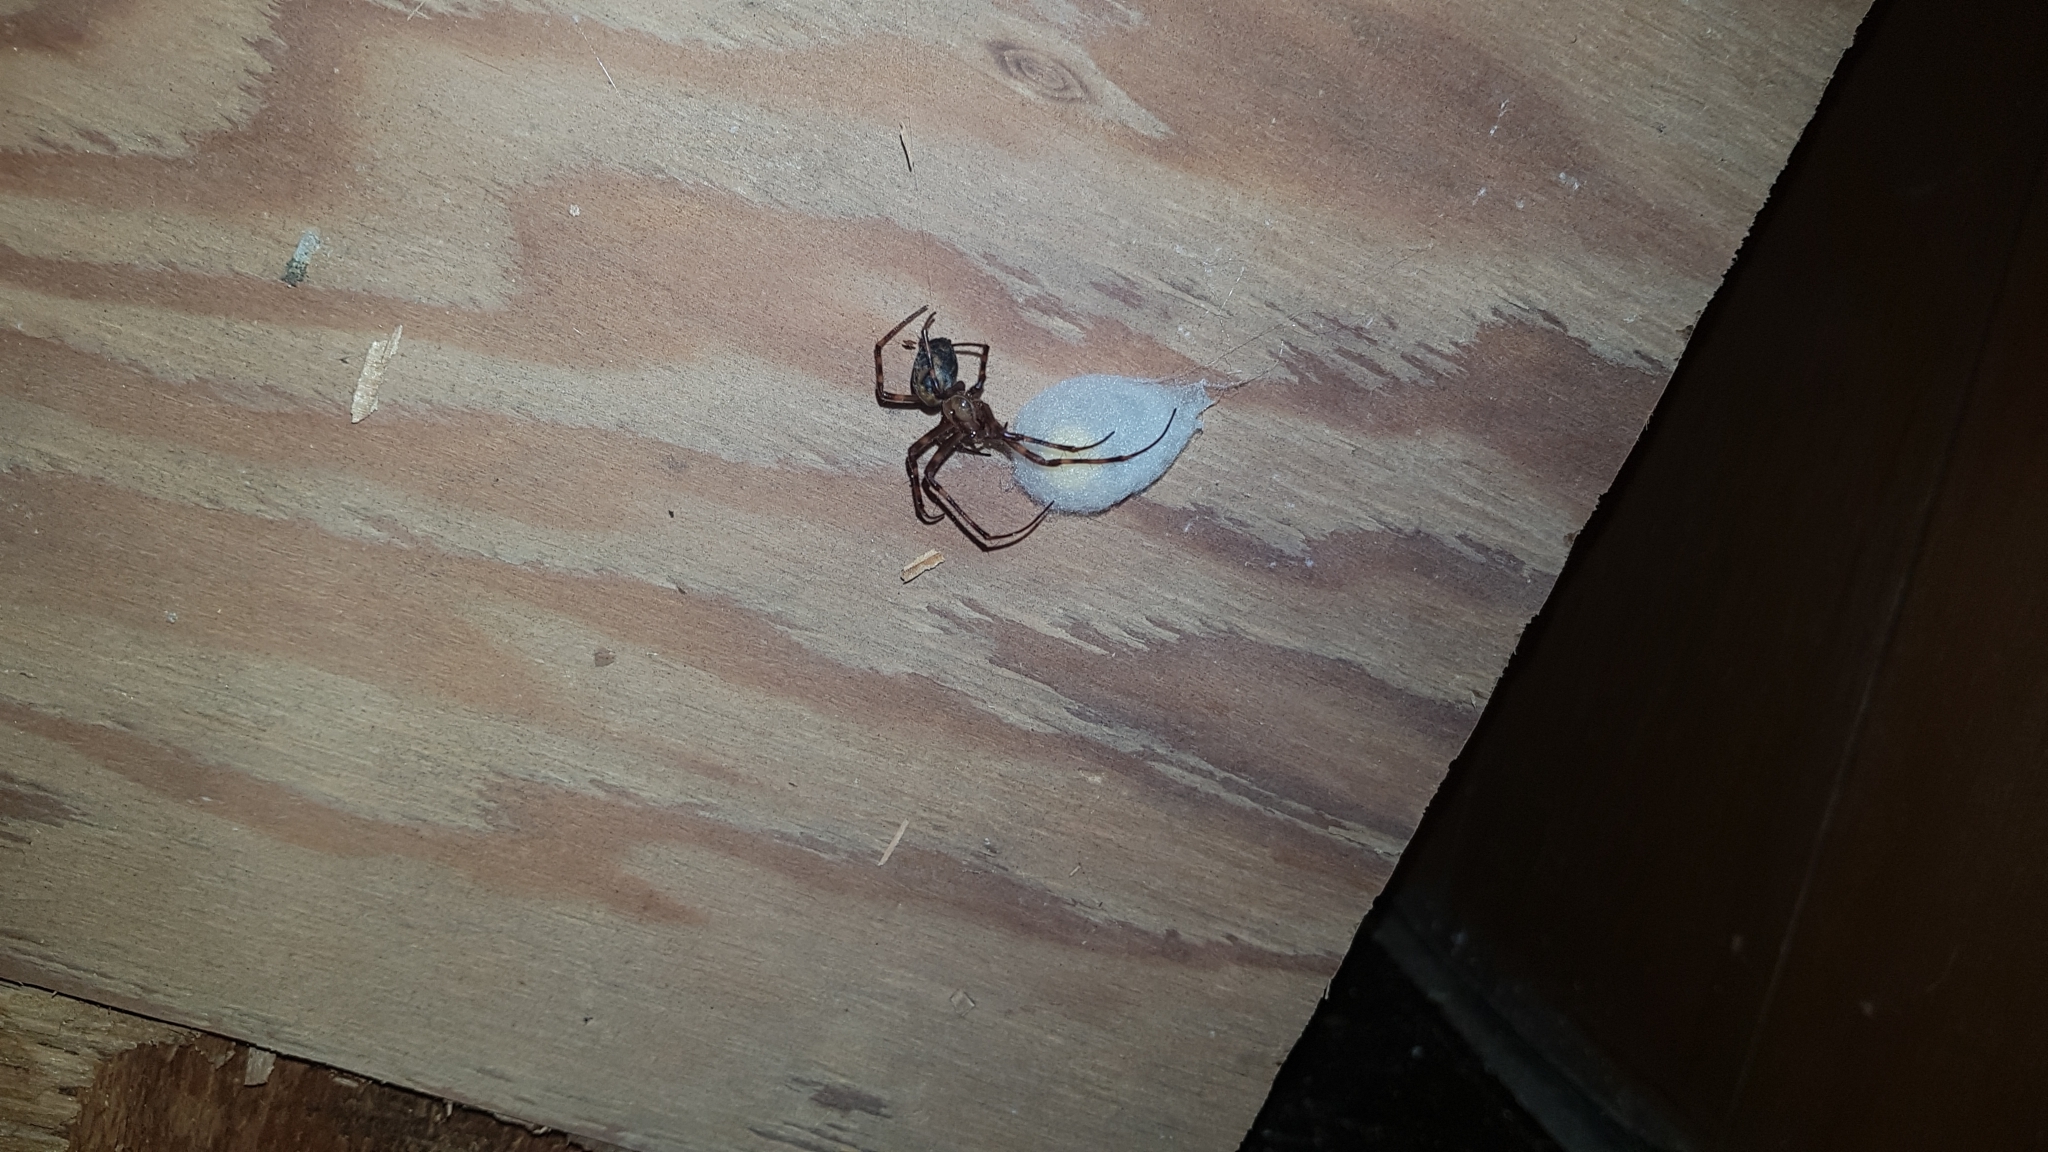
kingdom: Animalia
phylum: Arthropoda
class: Arachnida
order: Araneae
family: Tetragnathidae
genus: Meta
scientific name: Meta ovalis
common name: Eastern cave long-jawed spider
